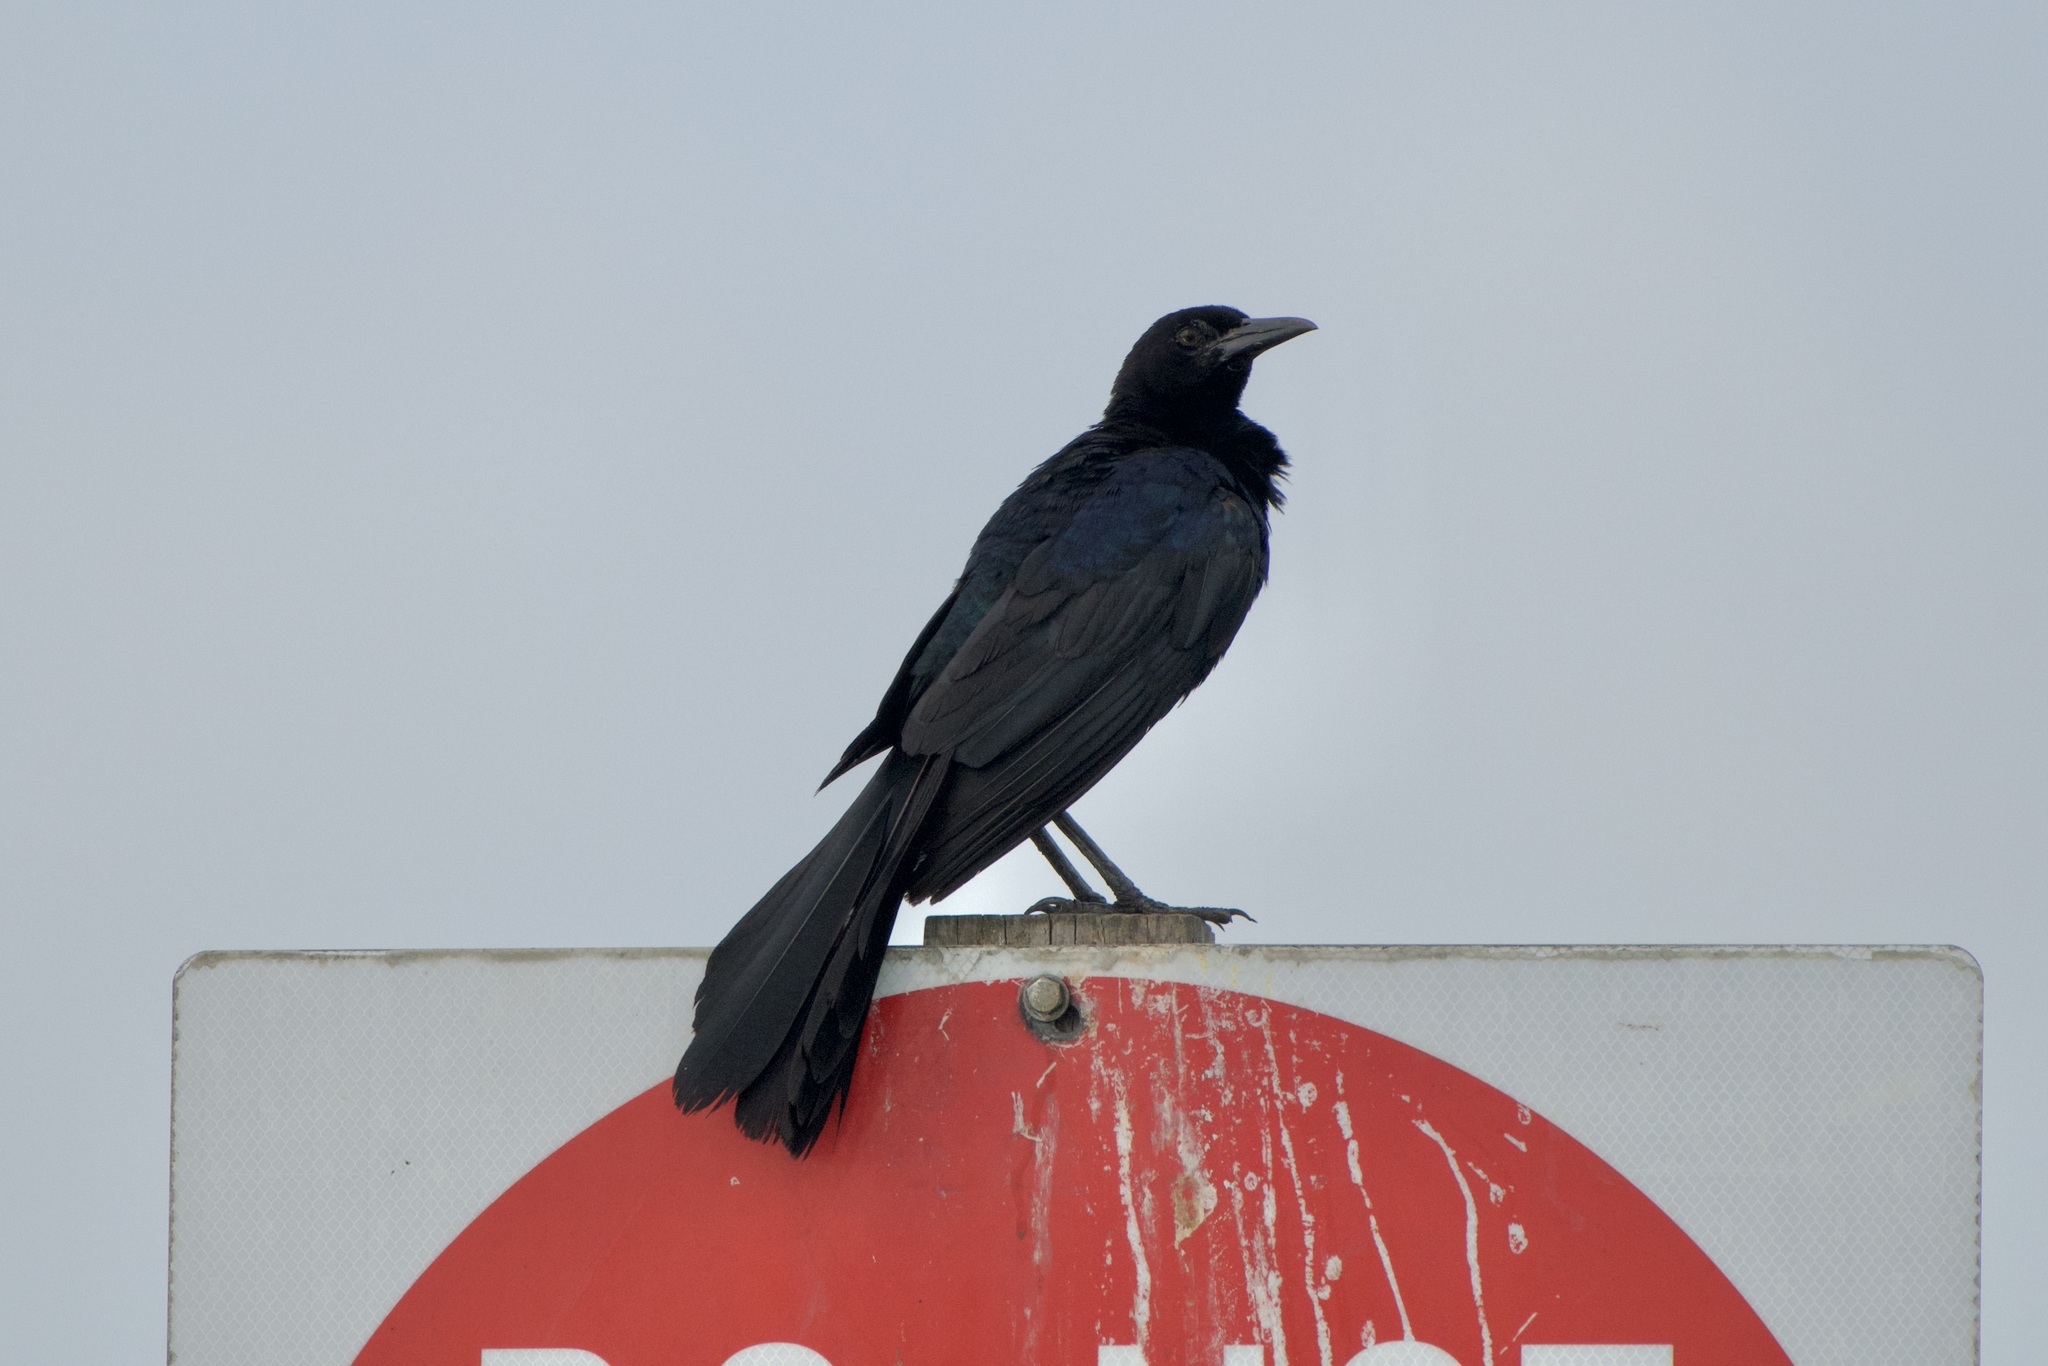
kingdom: Animalia
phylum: Chordata
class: Aves
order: Passeriformes
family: Icteridae
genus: Quiscalus
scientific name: Quiscalus major
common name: Boat-tailed grackle
